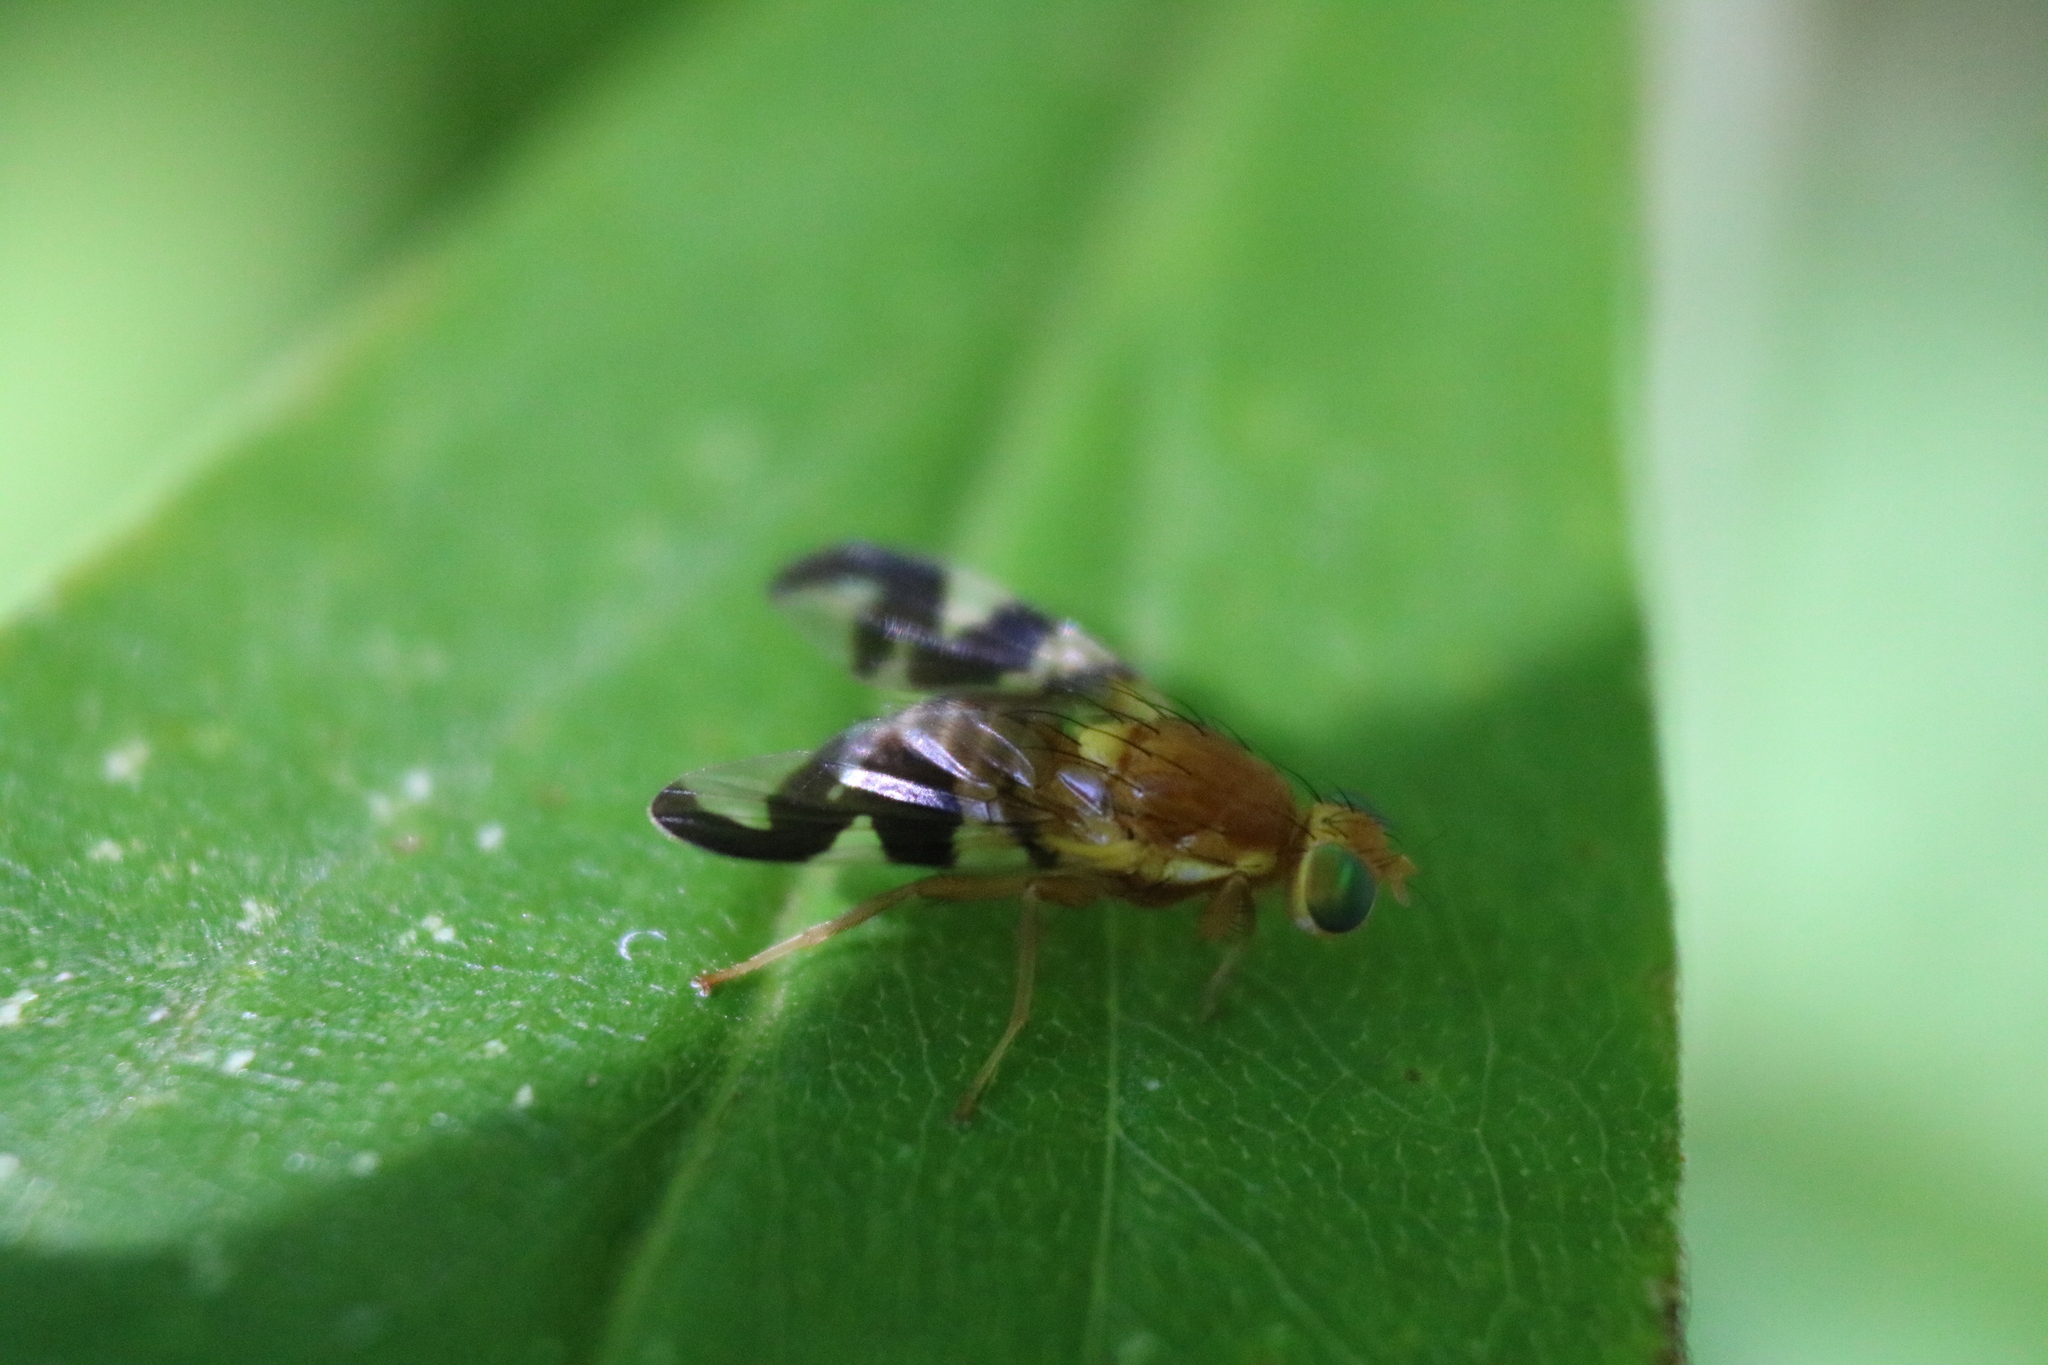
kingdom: Animalia
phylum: Arthropoda
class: Insecta
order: Diptera
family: Tephritidae
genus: Rhagoletis
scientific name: Rhagoletis suavis
